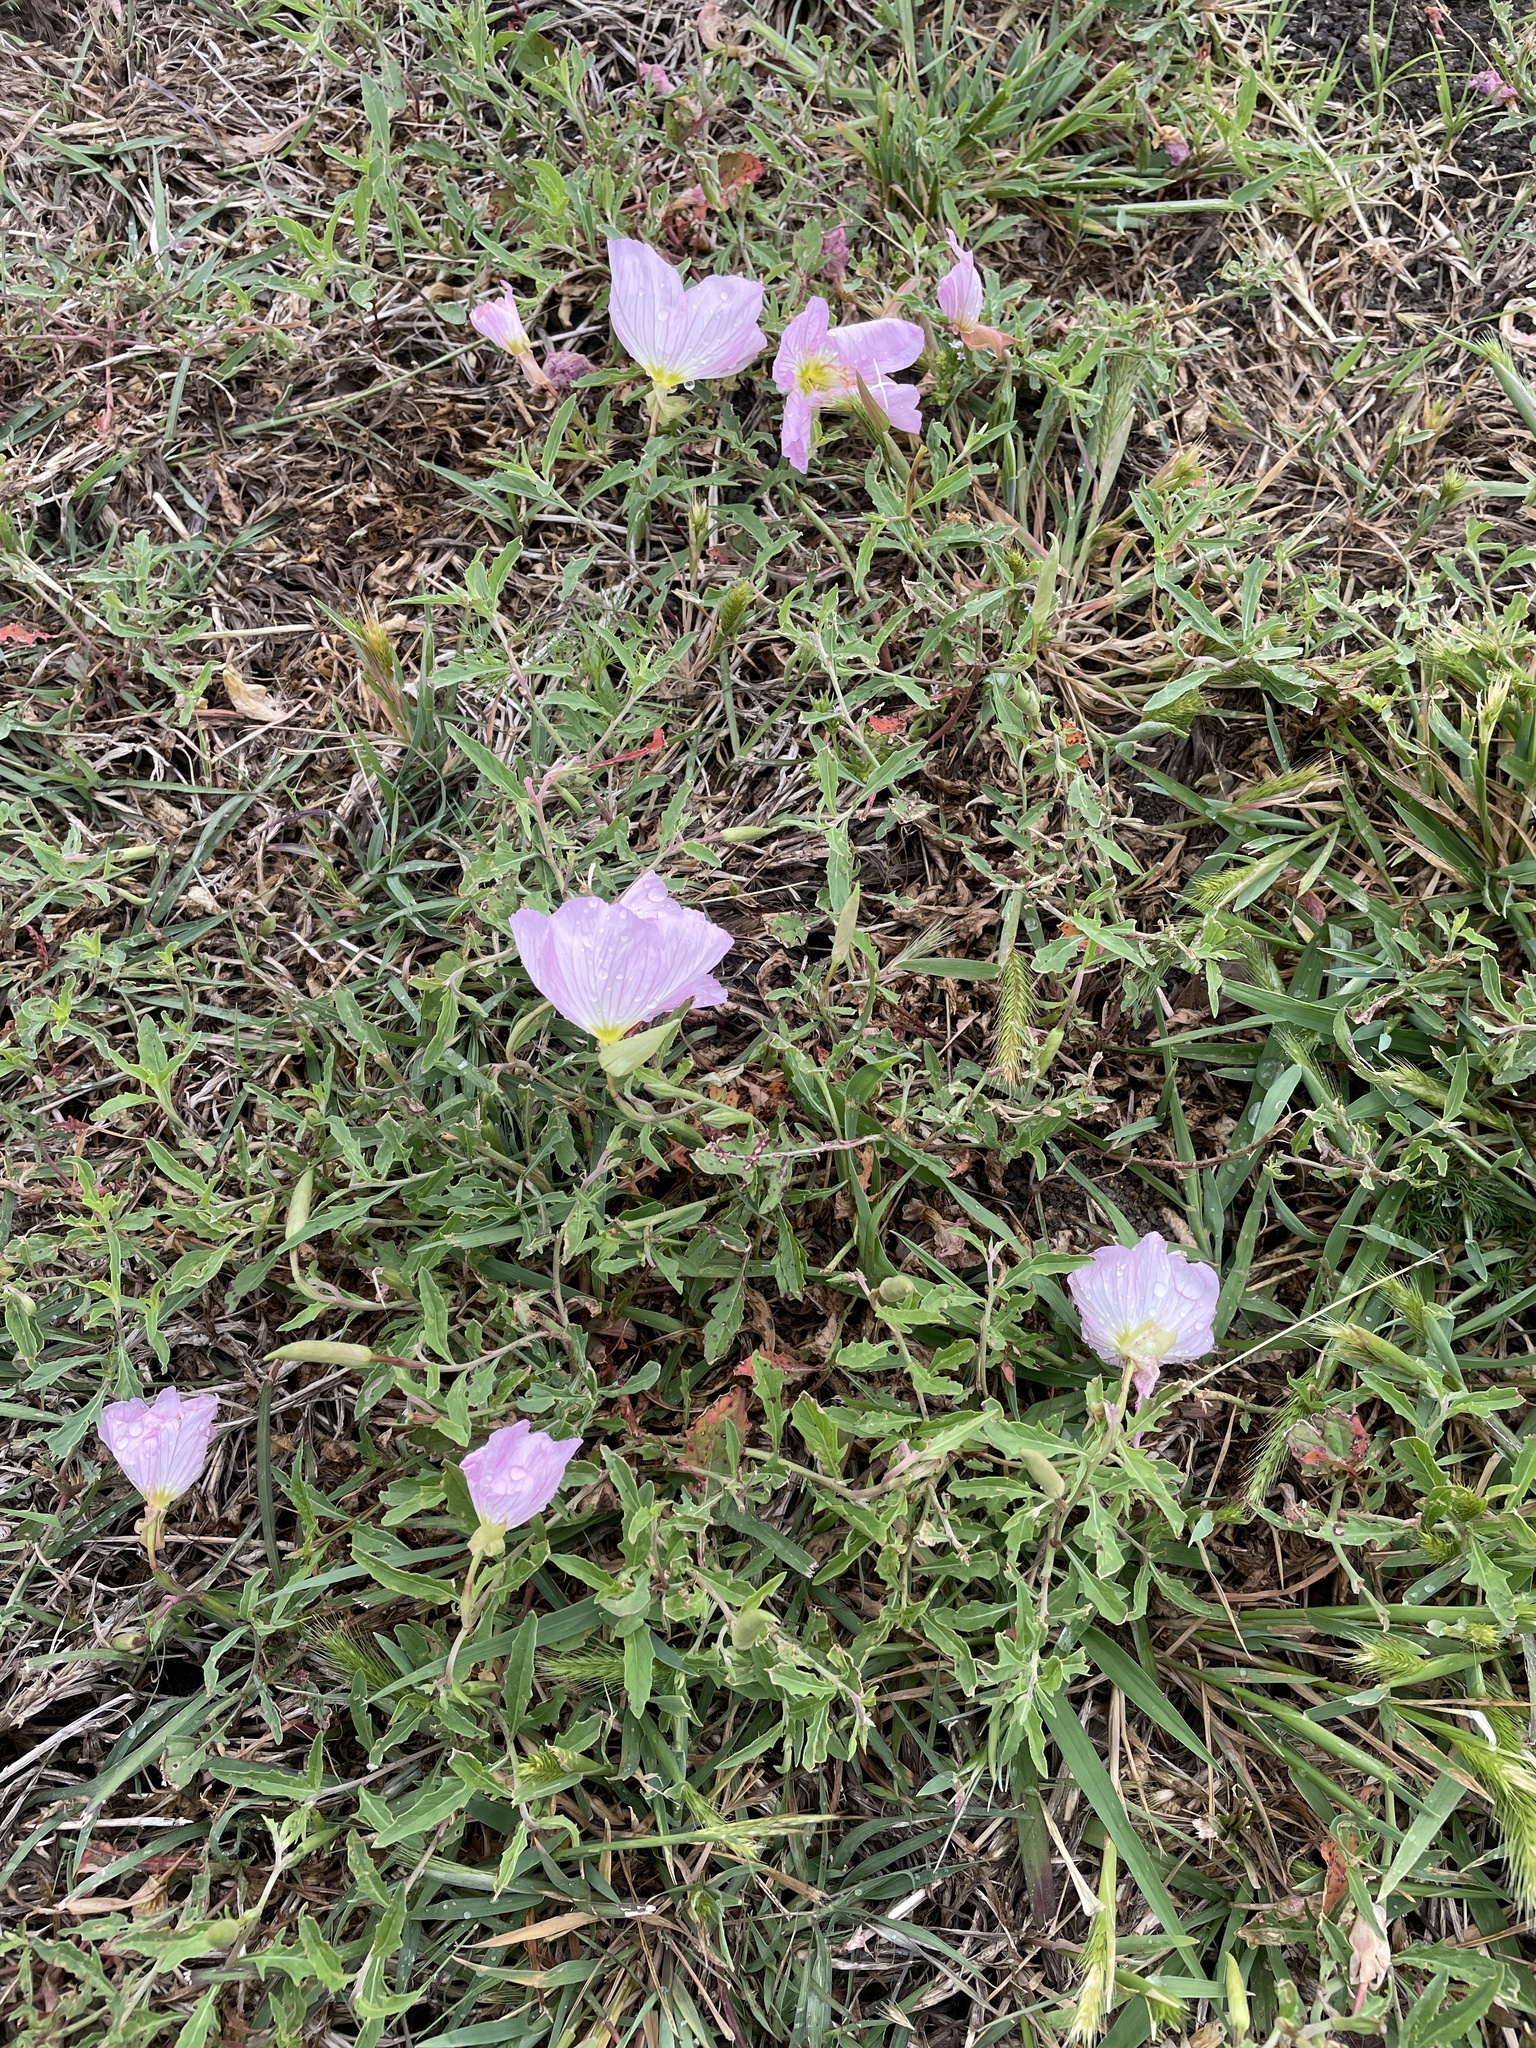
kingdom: Plantae
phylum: Tracheophyta
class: Magnoliopsida
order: Myrtales
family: Onagraceae
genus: Oenothera
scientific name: Oenothera speciosa
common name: White evening-primrose
